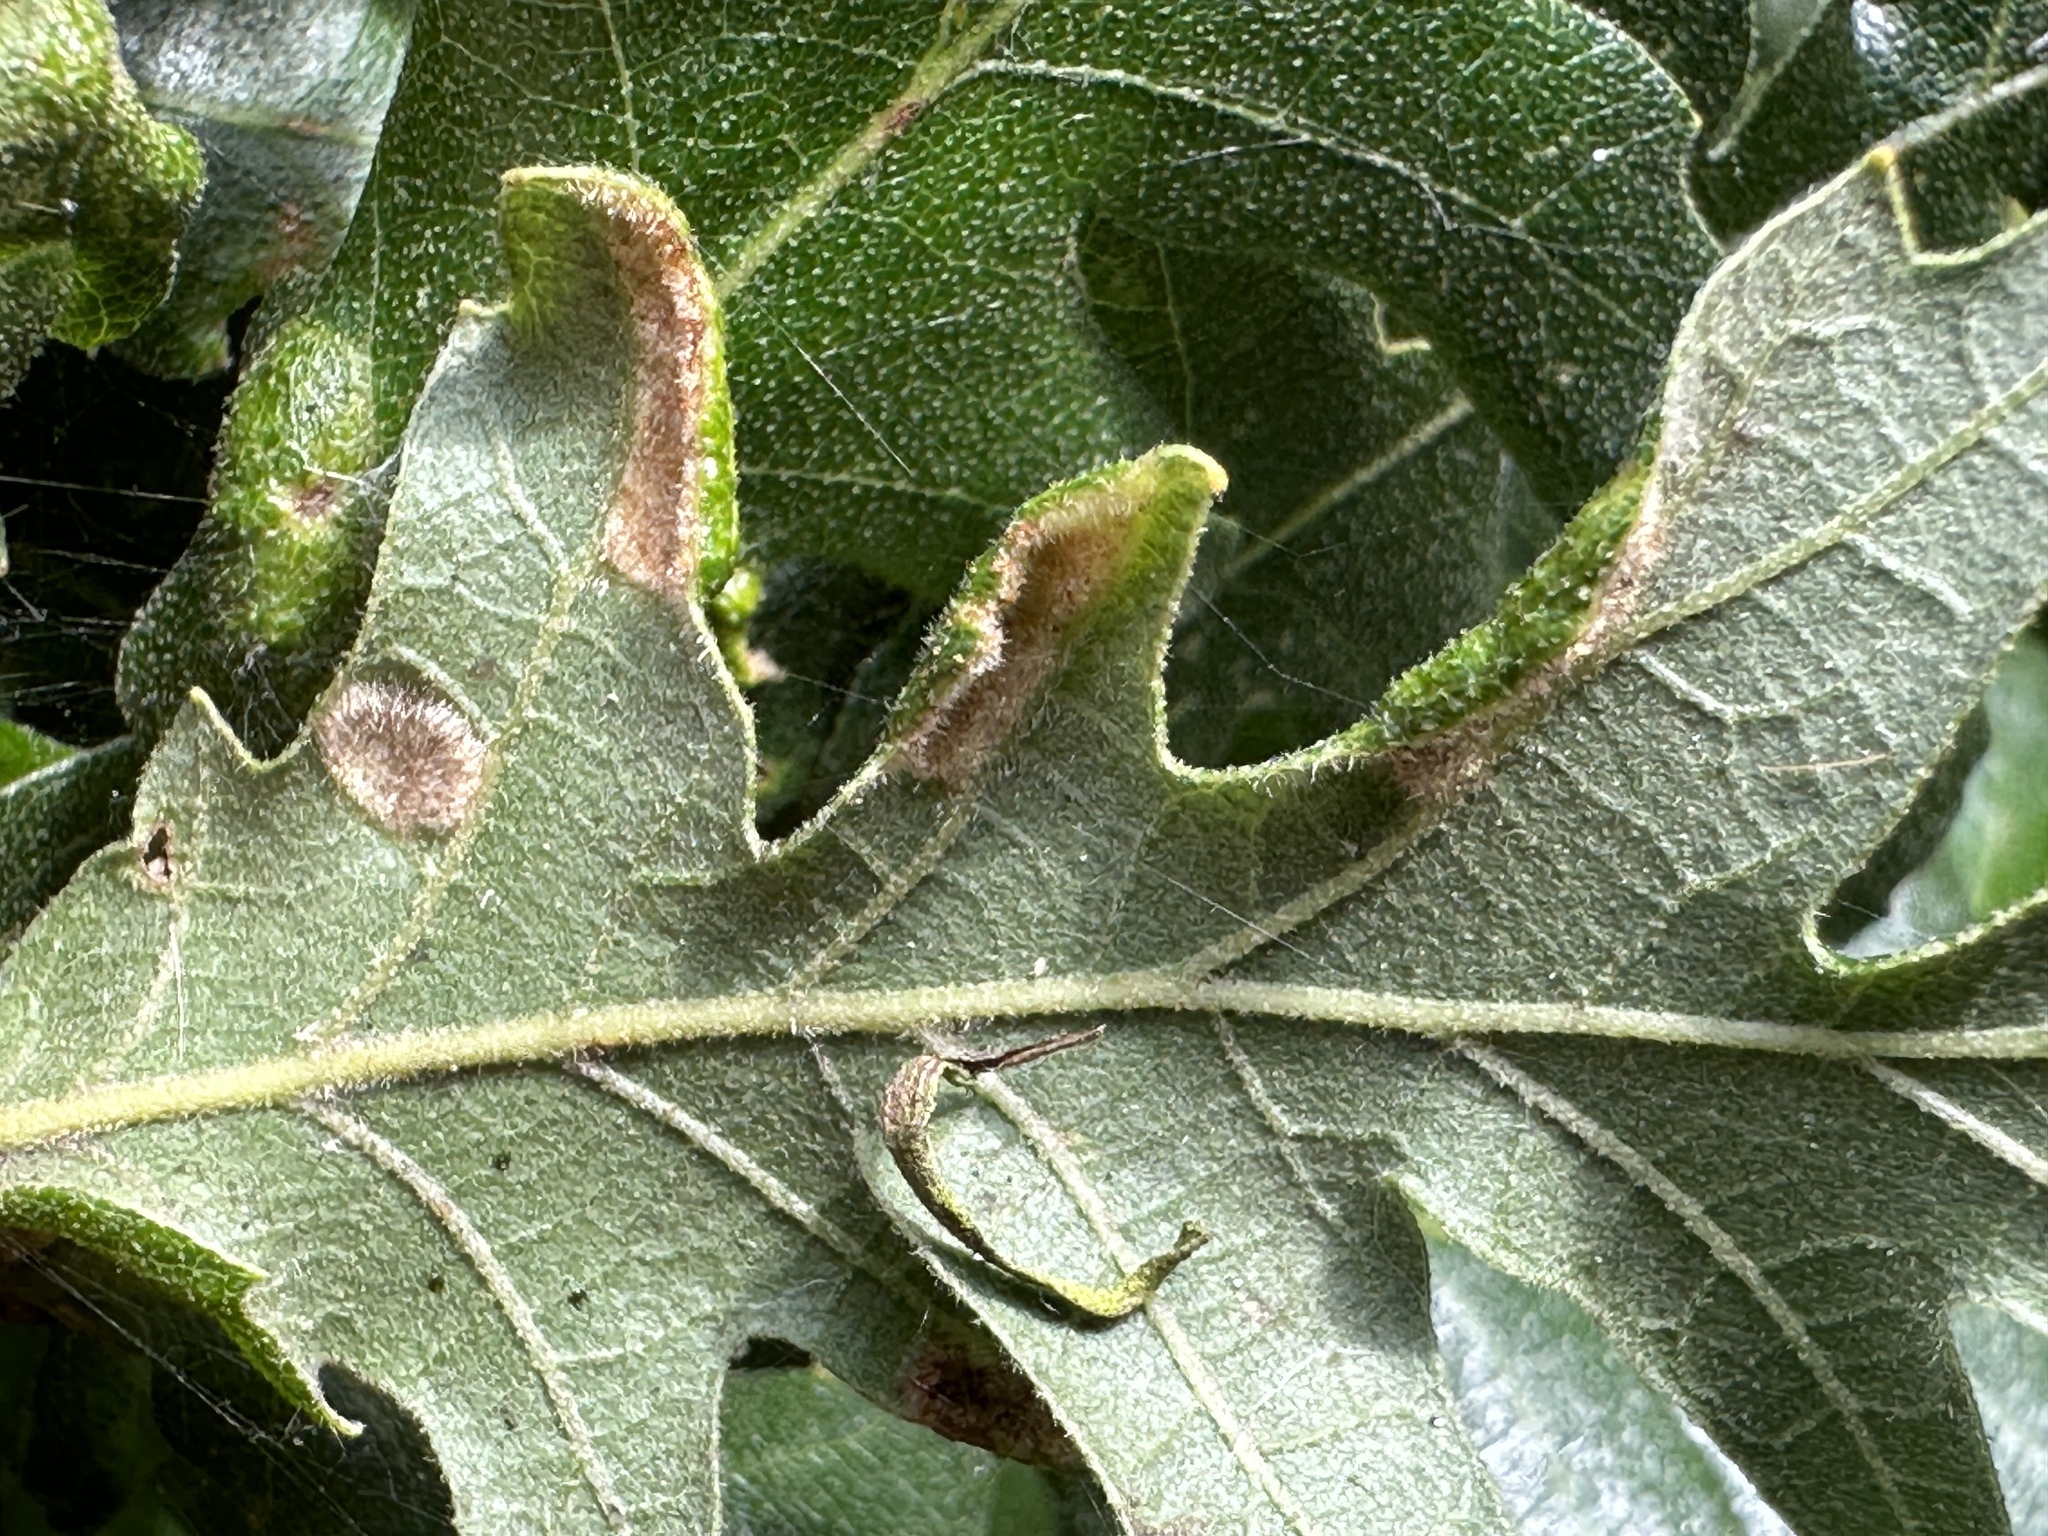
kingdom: Animalia
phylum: Arthropoda
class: Arachnida
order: Trombidiformes
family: Eriophyidae
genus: Aceria
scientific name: Aceria cerrea
